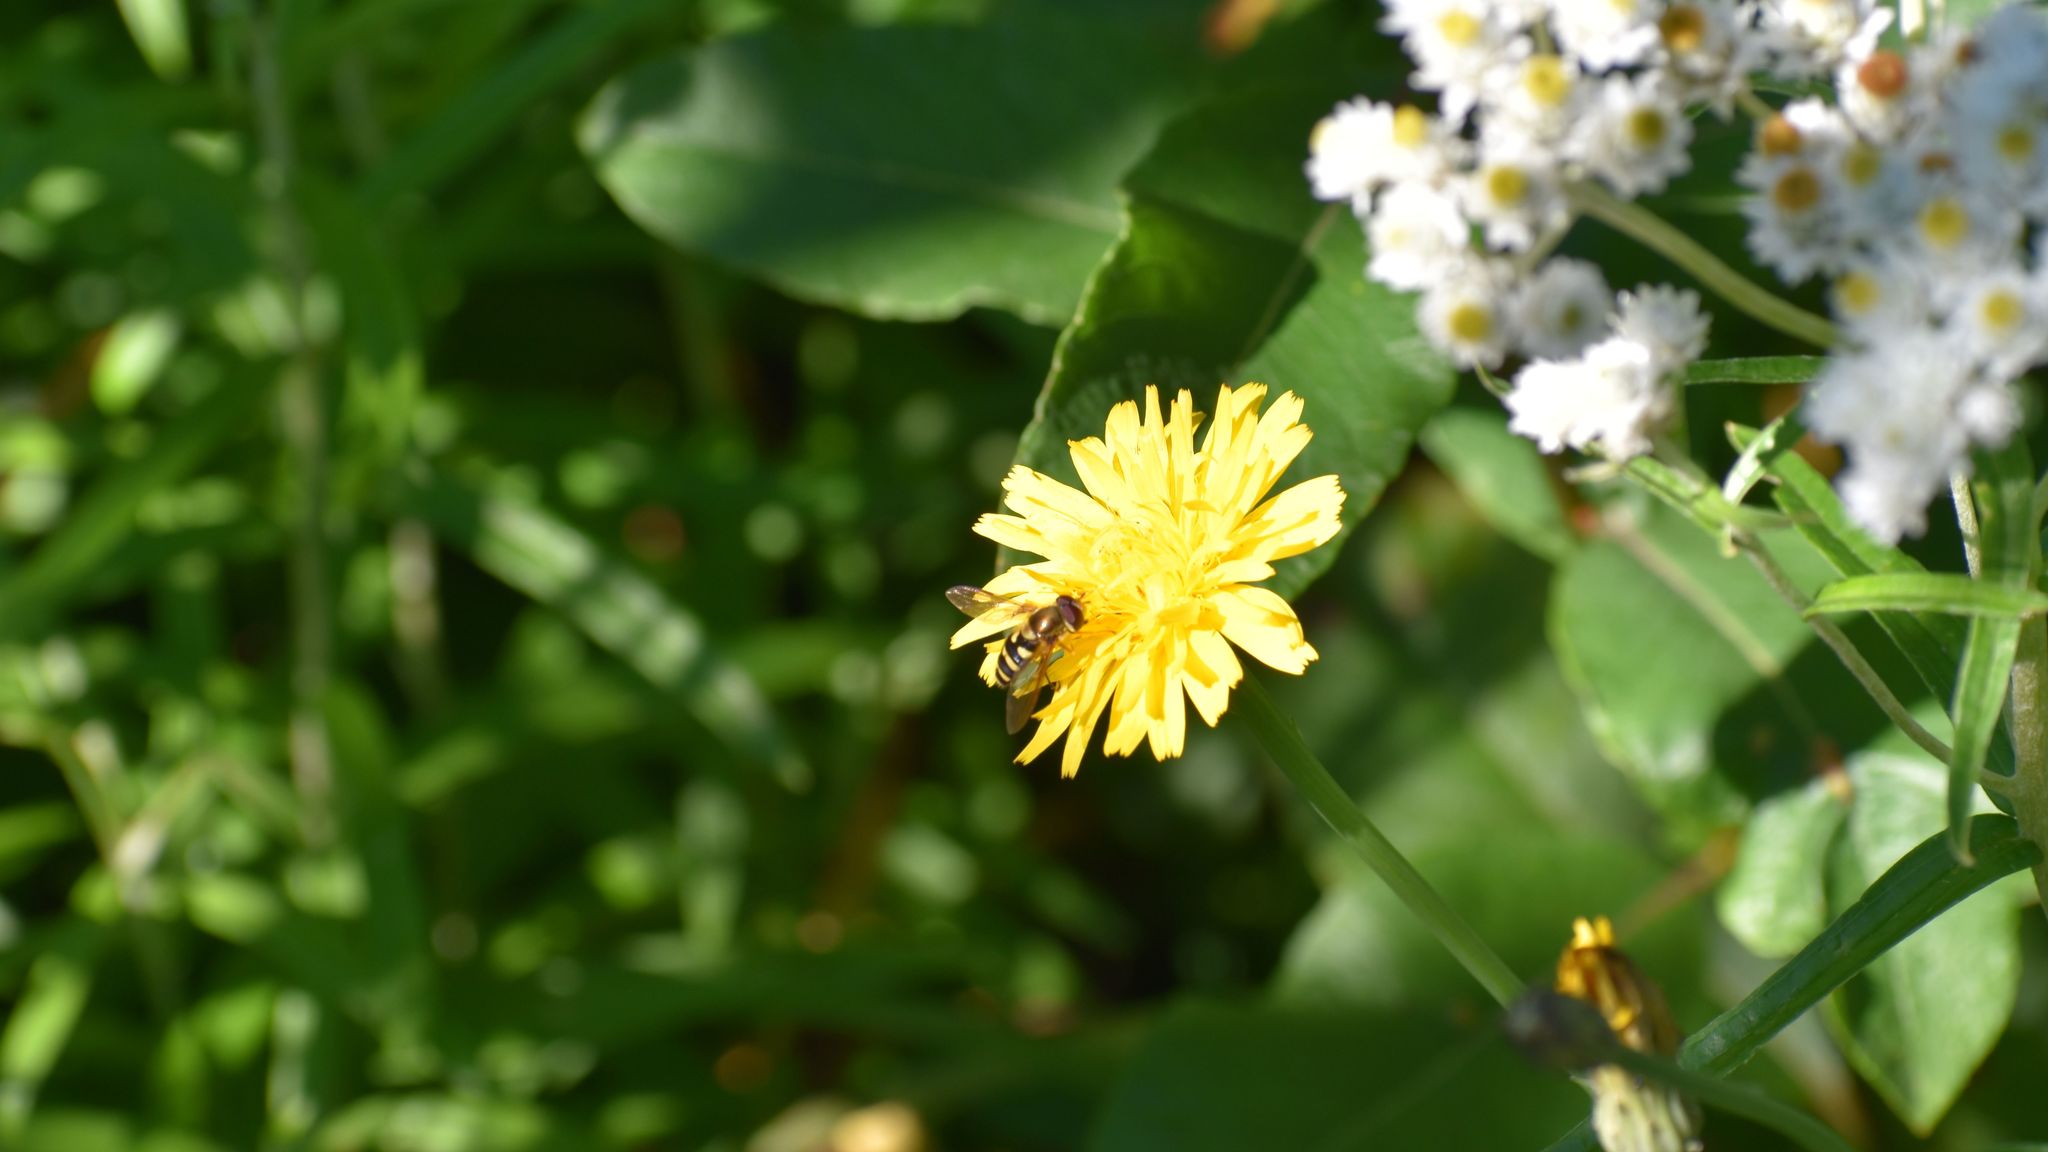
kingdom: Animalia
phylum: Arthropoda
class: Insecta
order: Diptera
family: Syrphidae
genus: Syrphus
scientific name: Syrphus opinator
